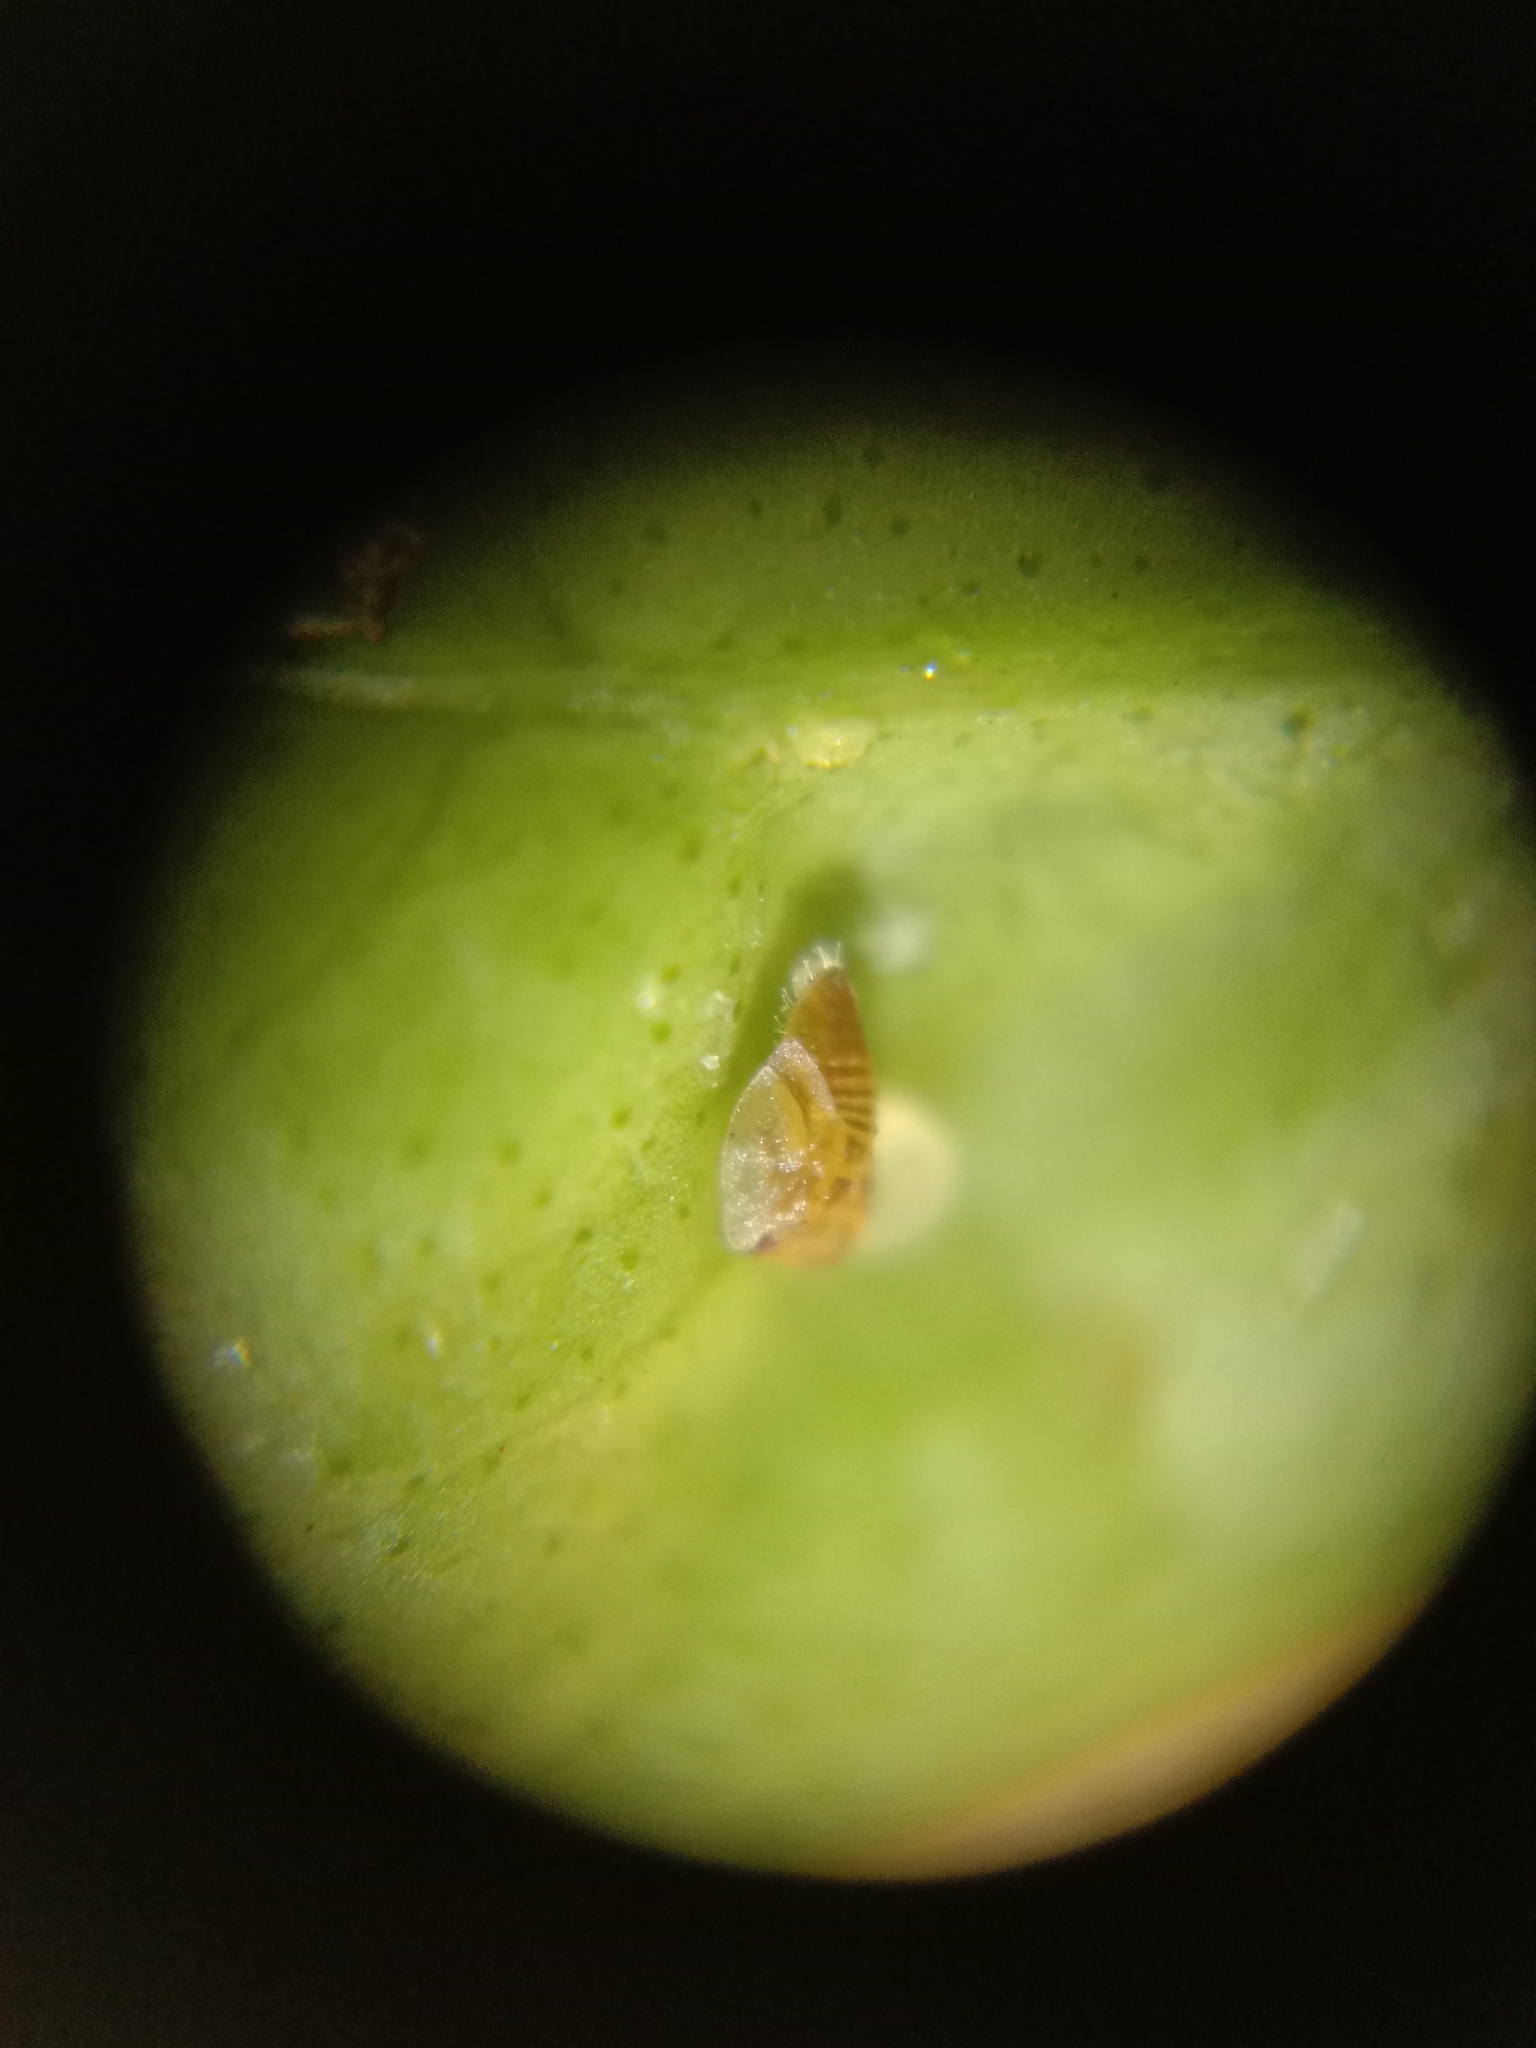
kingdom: Animalia
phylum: Arthropoda
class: Insecta
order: Hemiptera
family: Liviidae
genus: Diaphorina
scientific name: Diaphorina citri
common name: Asian citrus psyllid
